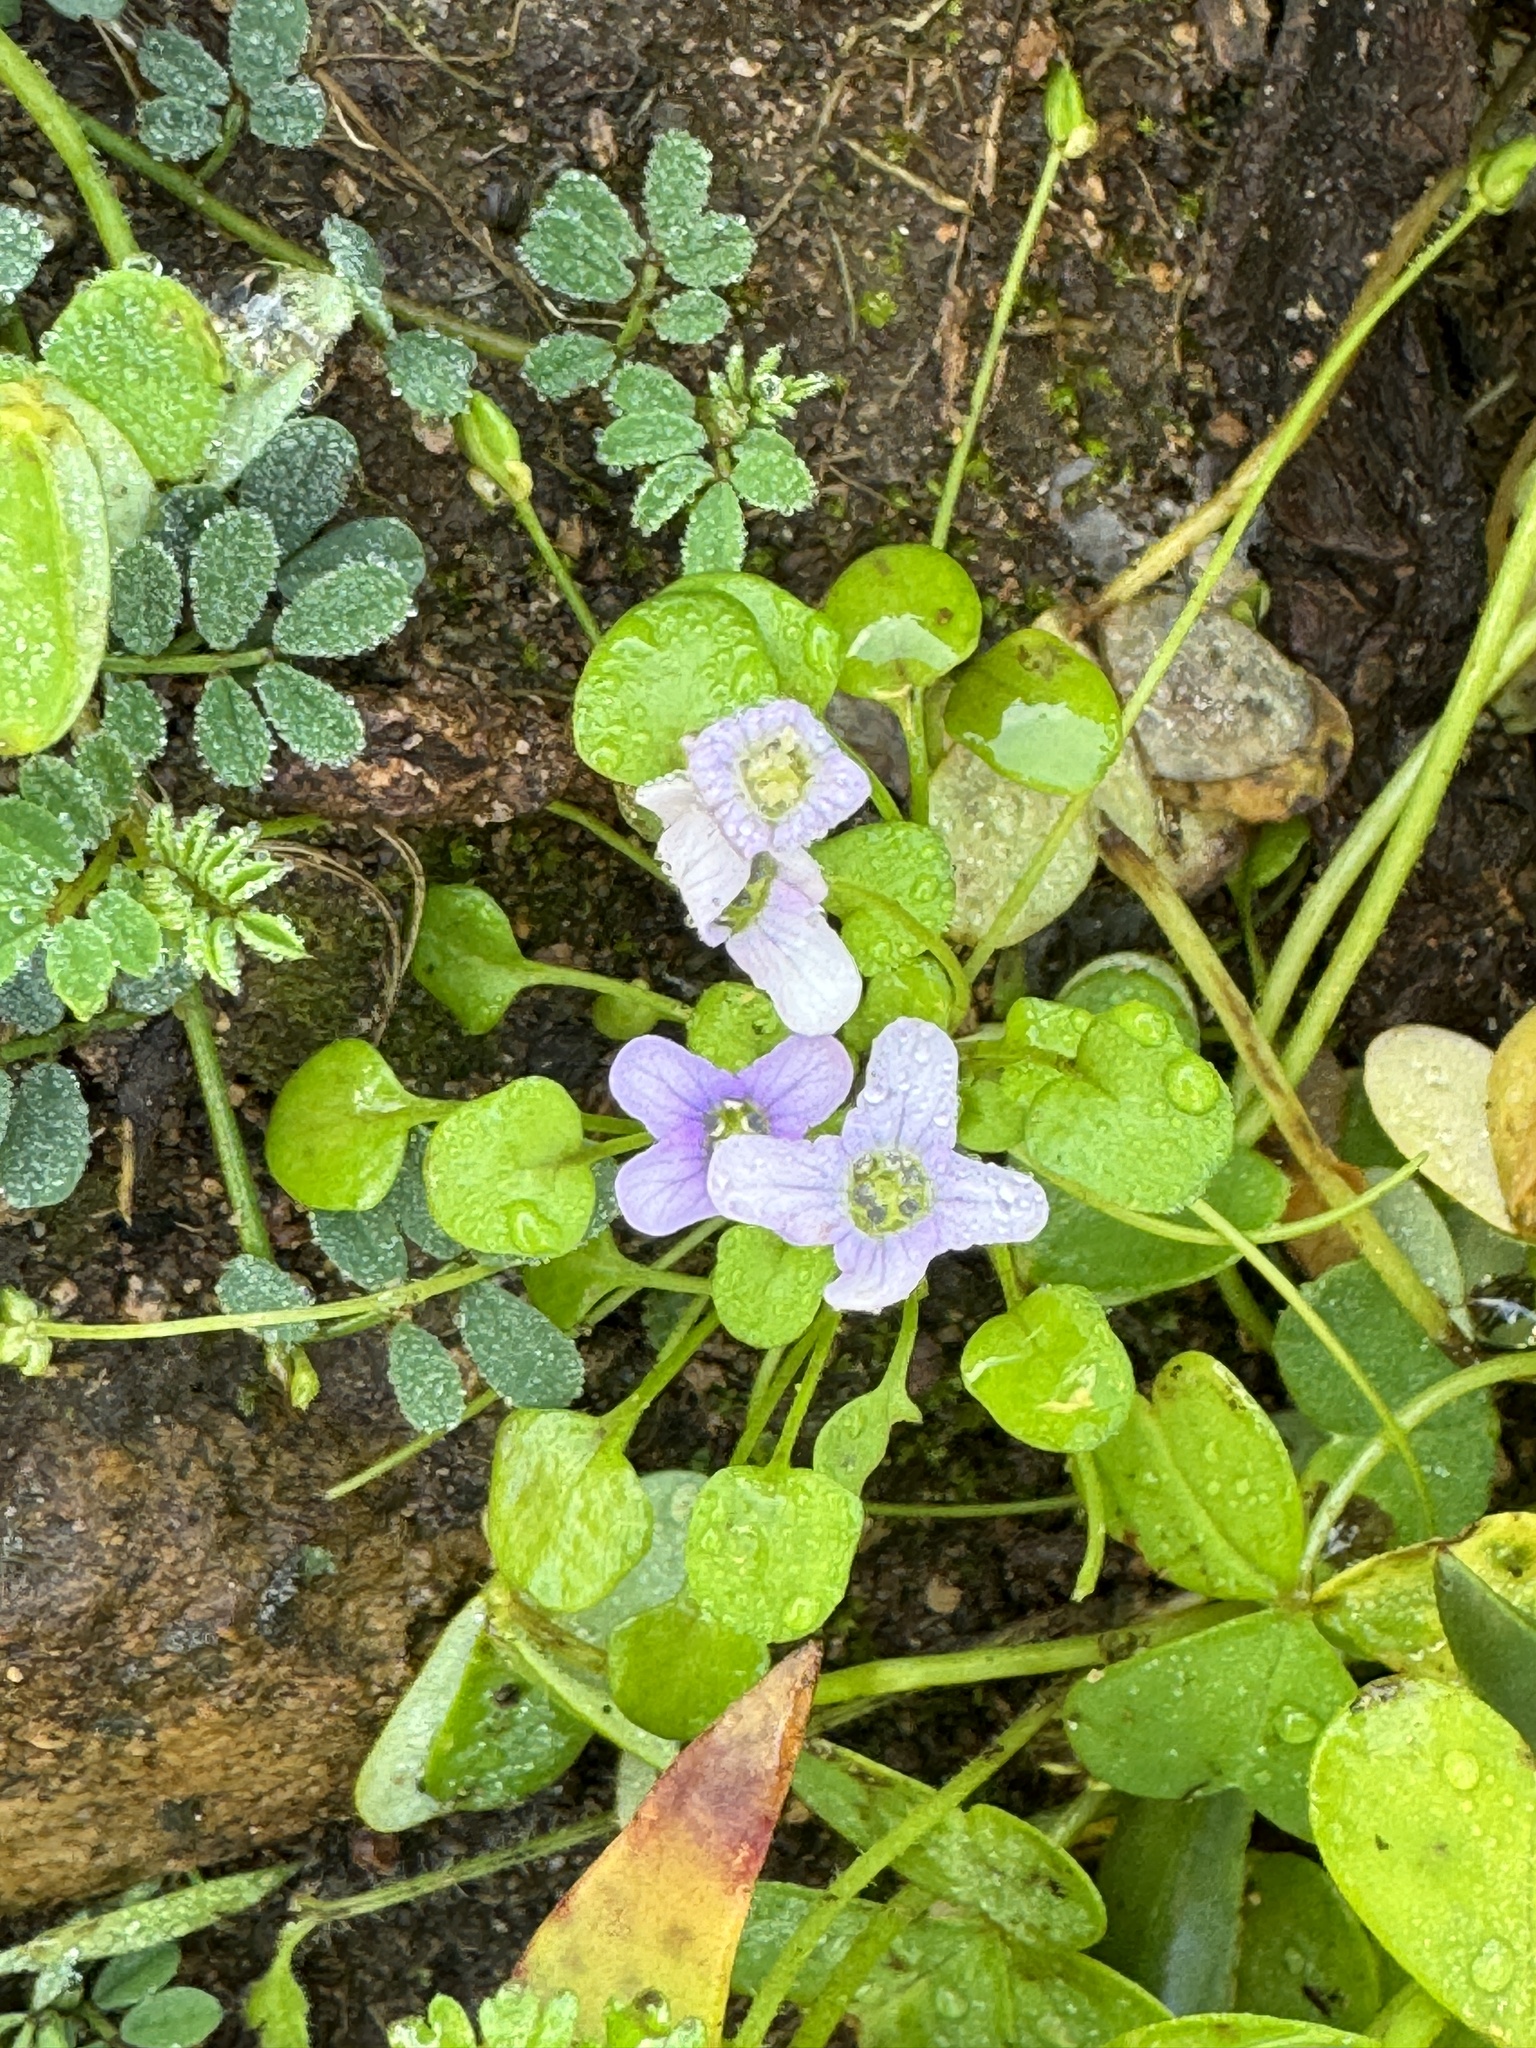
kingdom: Plantae
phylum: Tracheophyta
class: Magnoliopsida
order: Brassicales
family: Brassicaceae
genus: Ionopsidium
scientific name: Ionopsidium acaule
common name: False diamondflower
